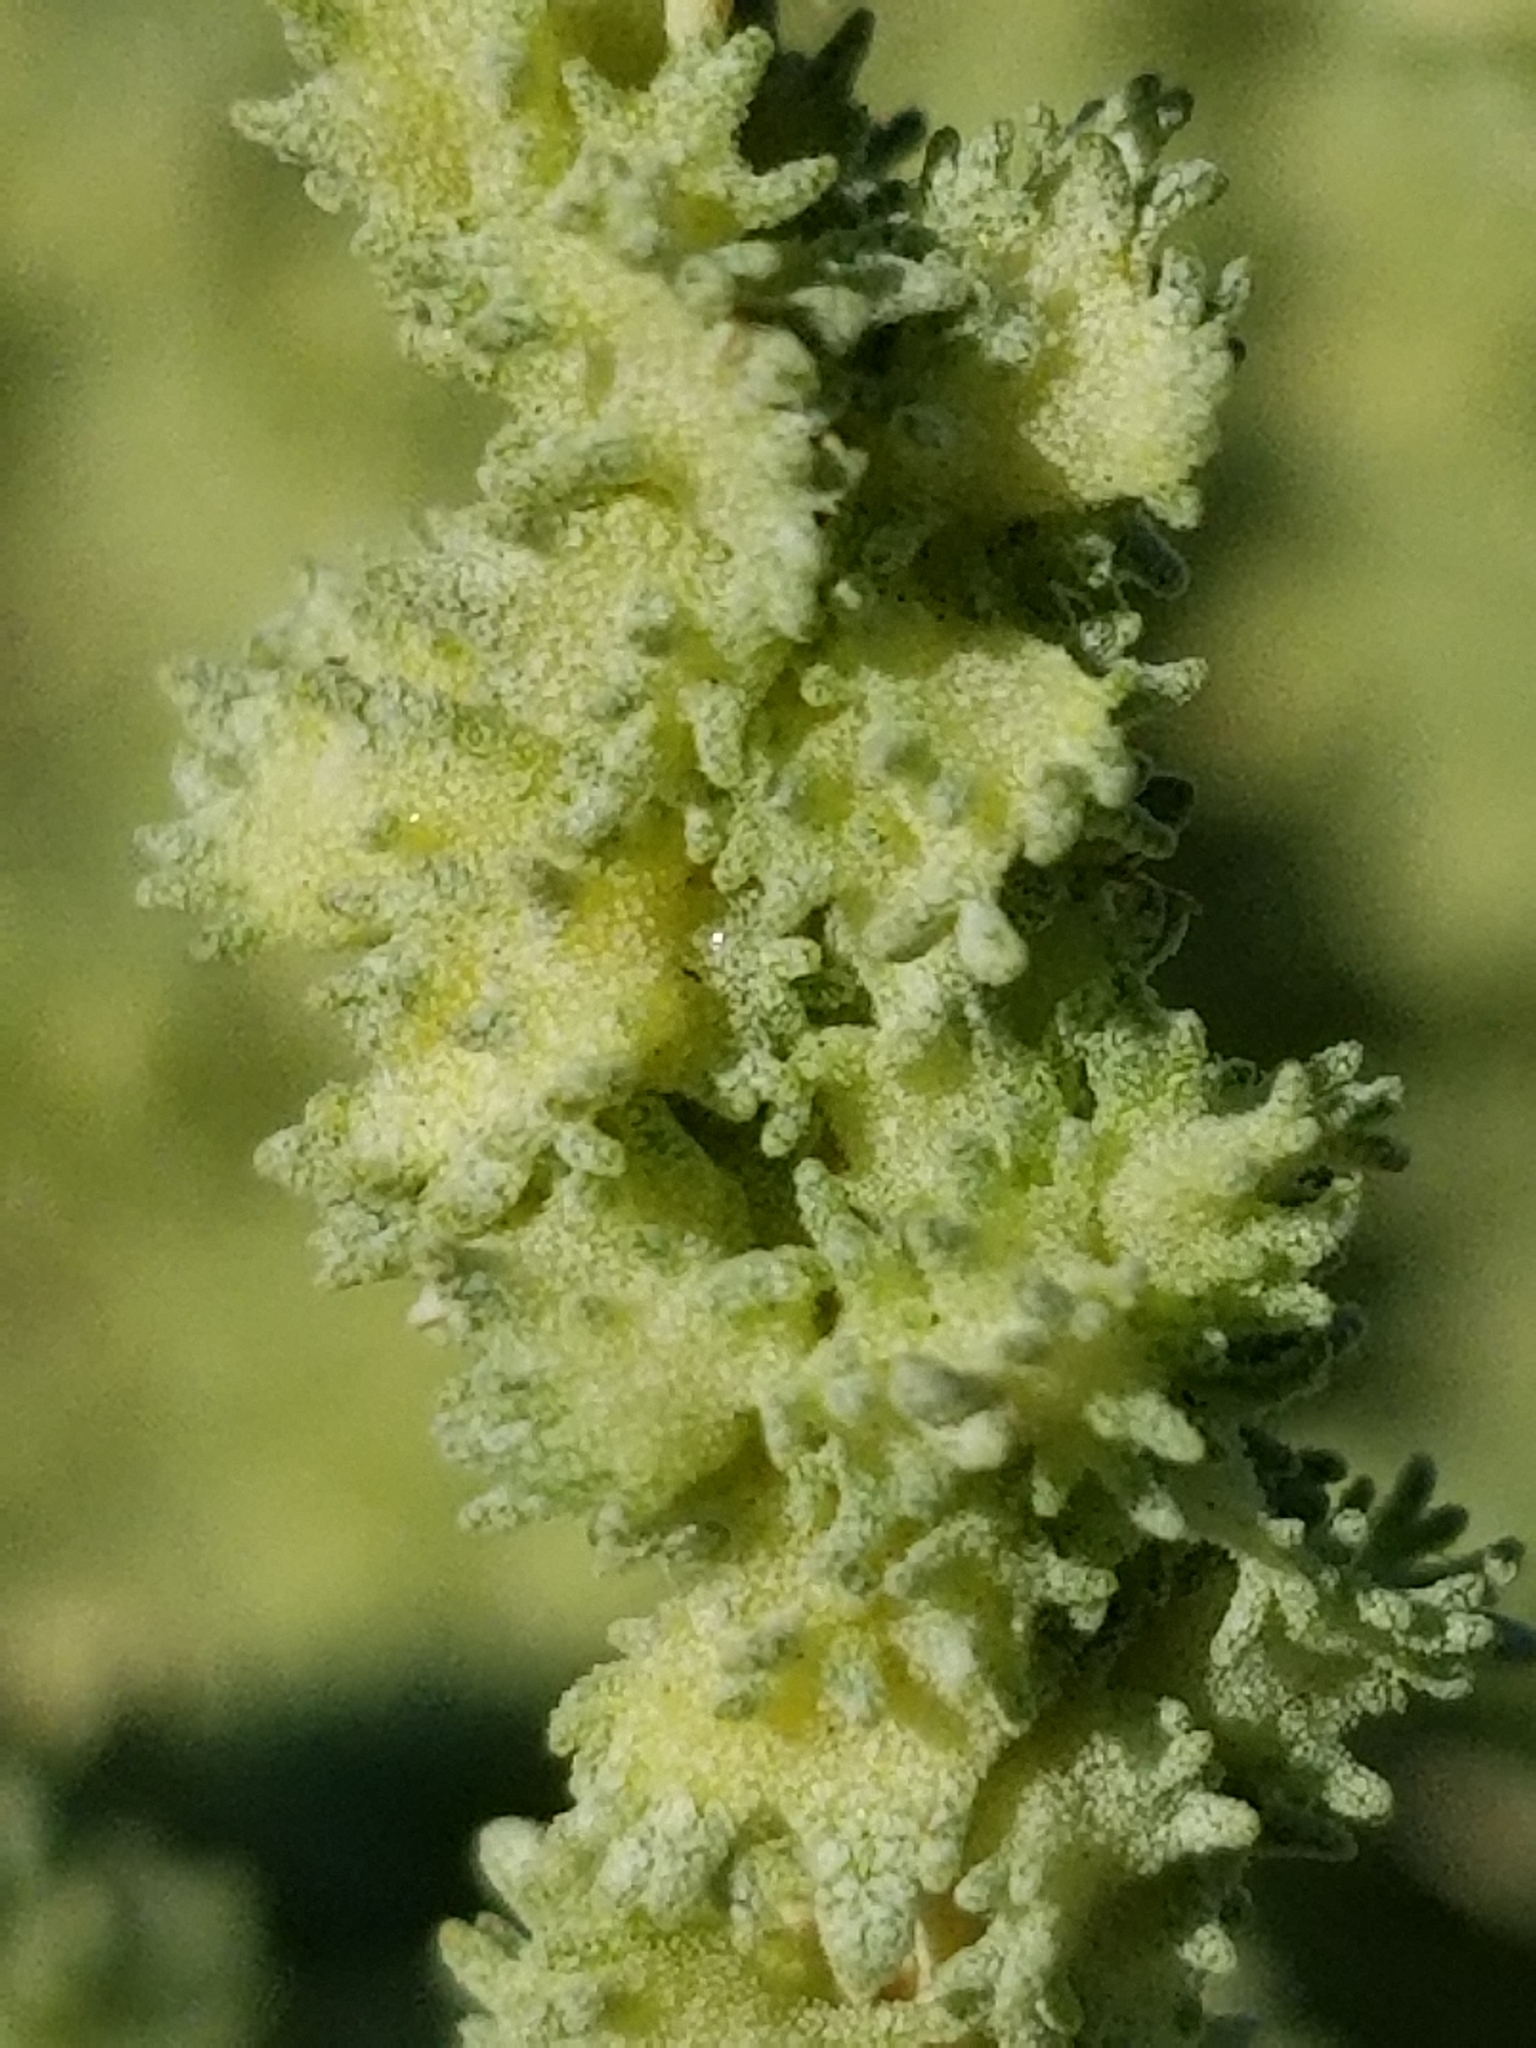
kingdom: Plantae
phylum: Tracheophyta
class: Magnoliopsida
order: Caryophyllales
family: Amaranthaceae
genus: Atriplex
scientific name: Atriplex polycarpa
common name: Desert saltbush
